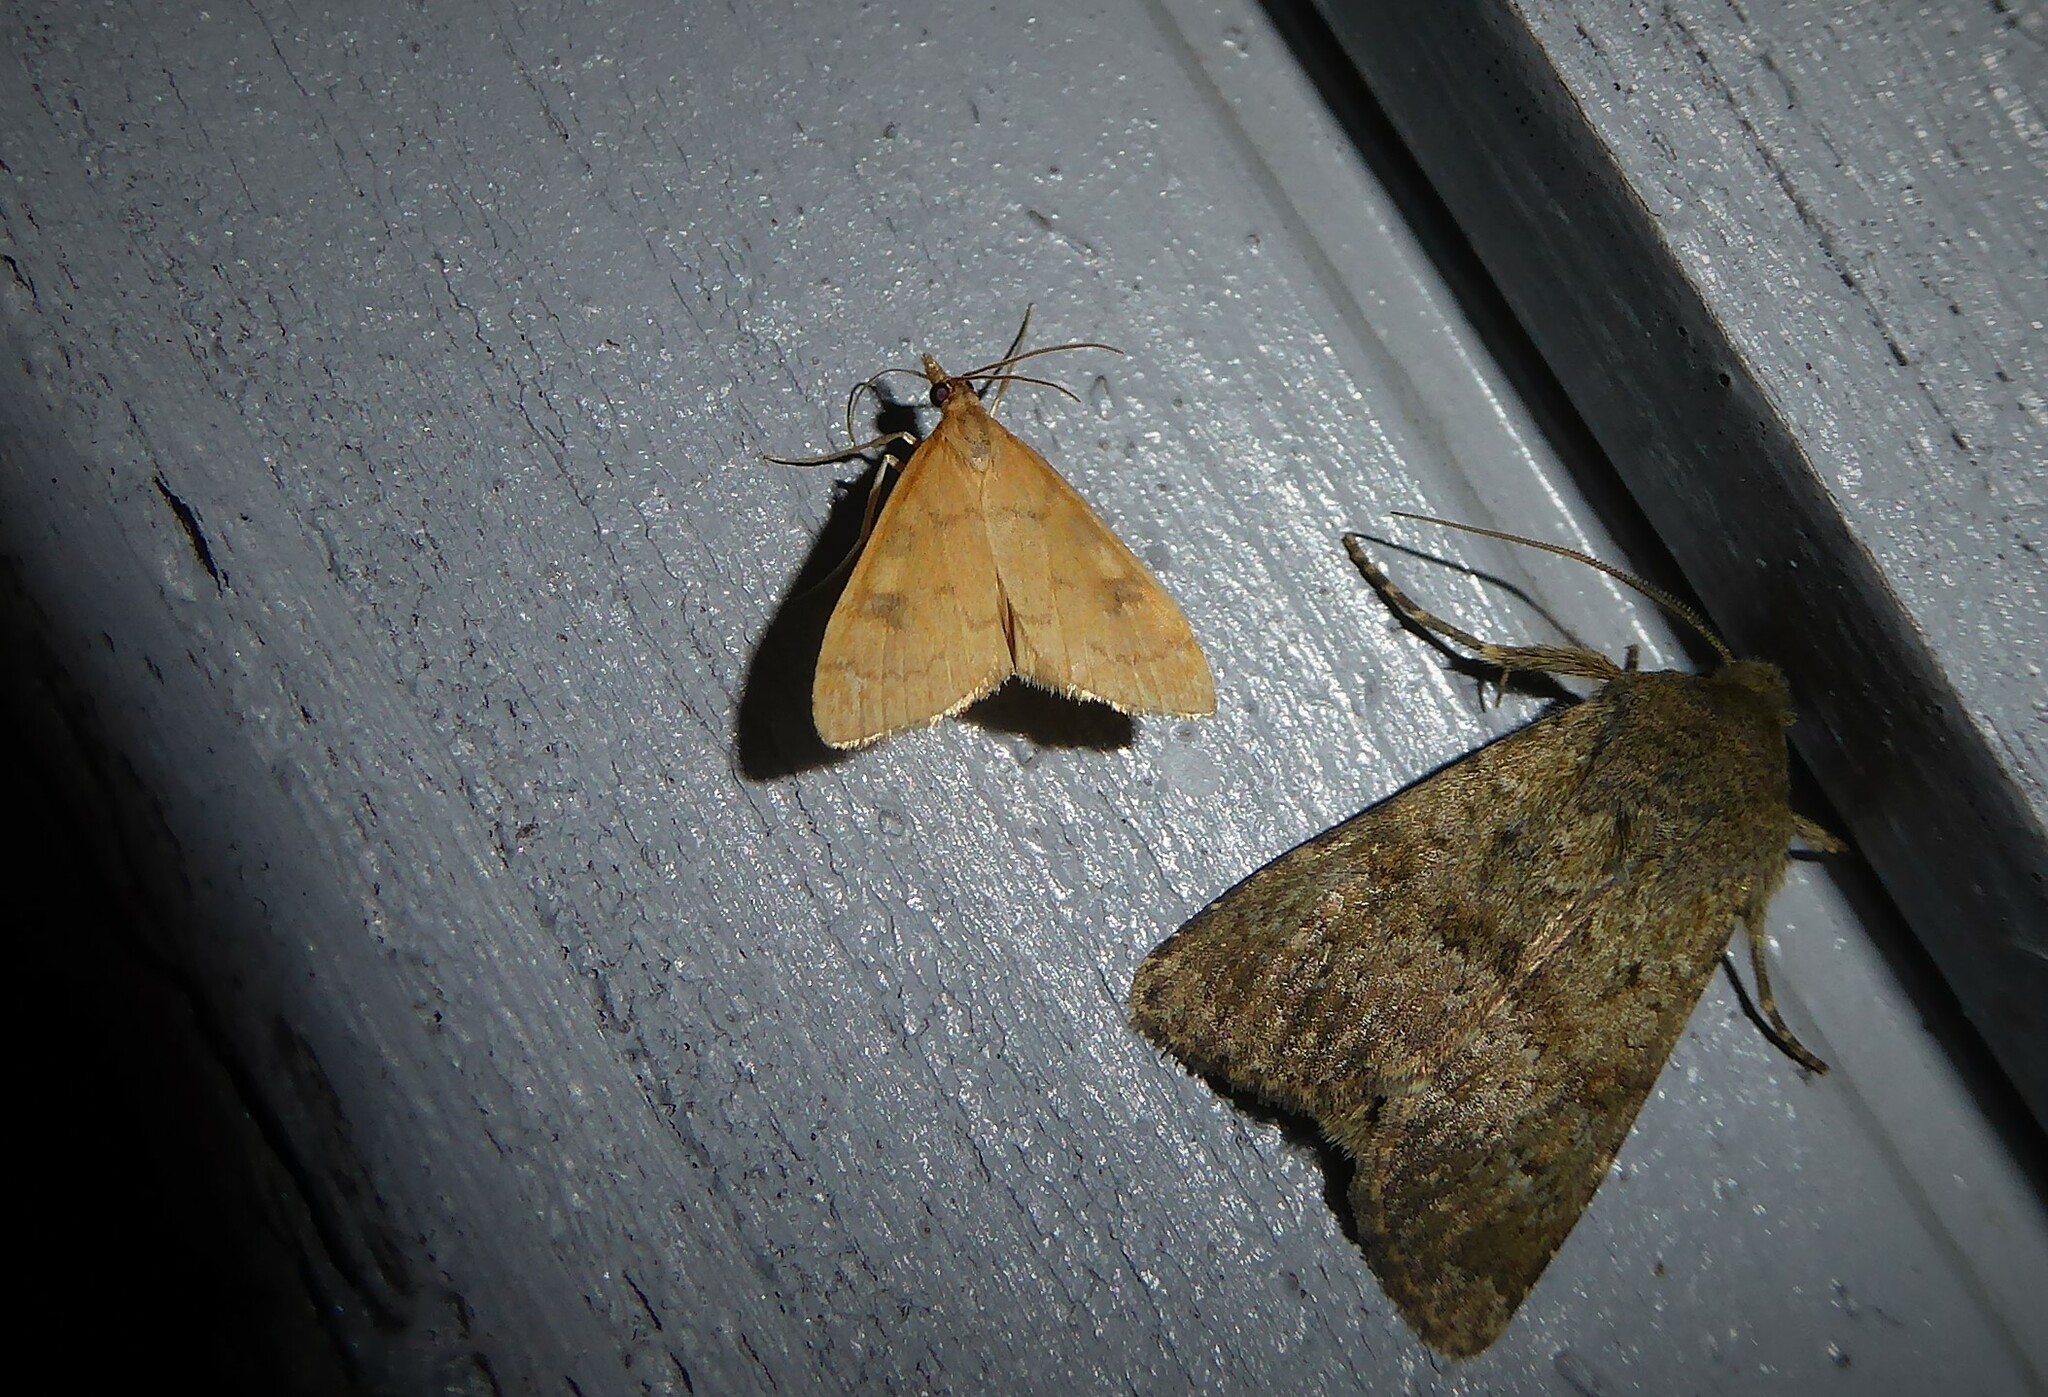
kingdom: Animalia
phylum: Arthropoda
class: Insecta
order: Lepidoptera
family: Crambidae
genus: Udea
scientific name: Udea Mnesictena flavidalis
